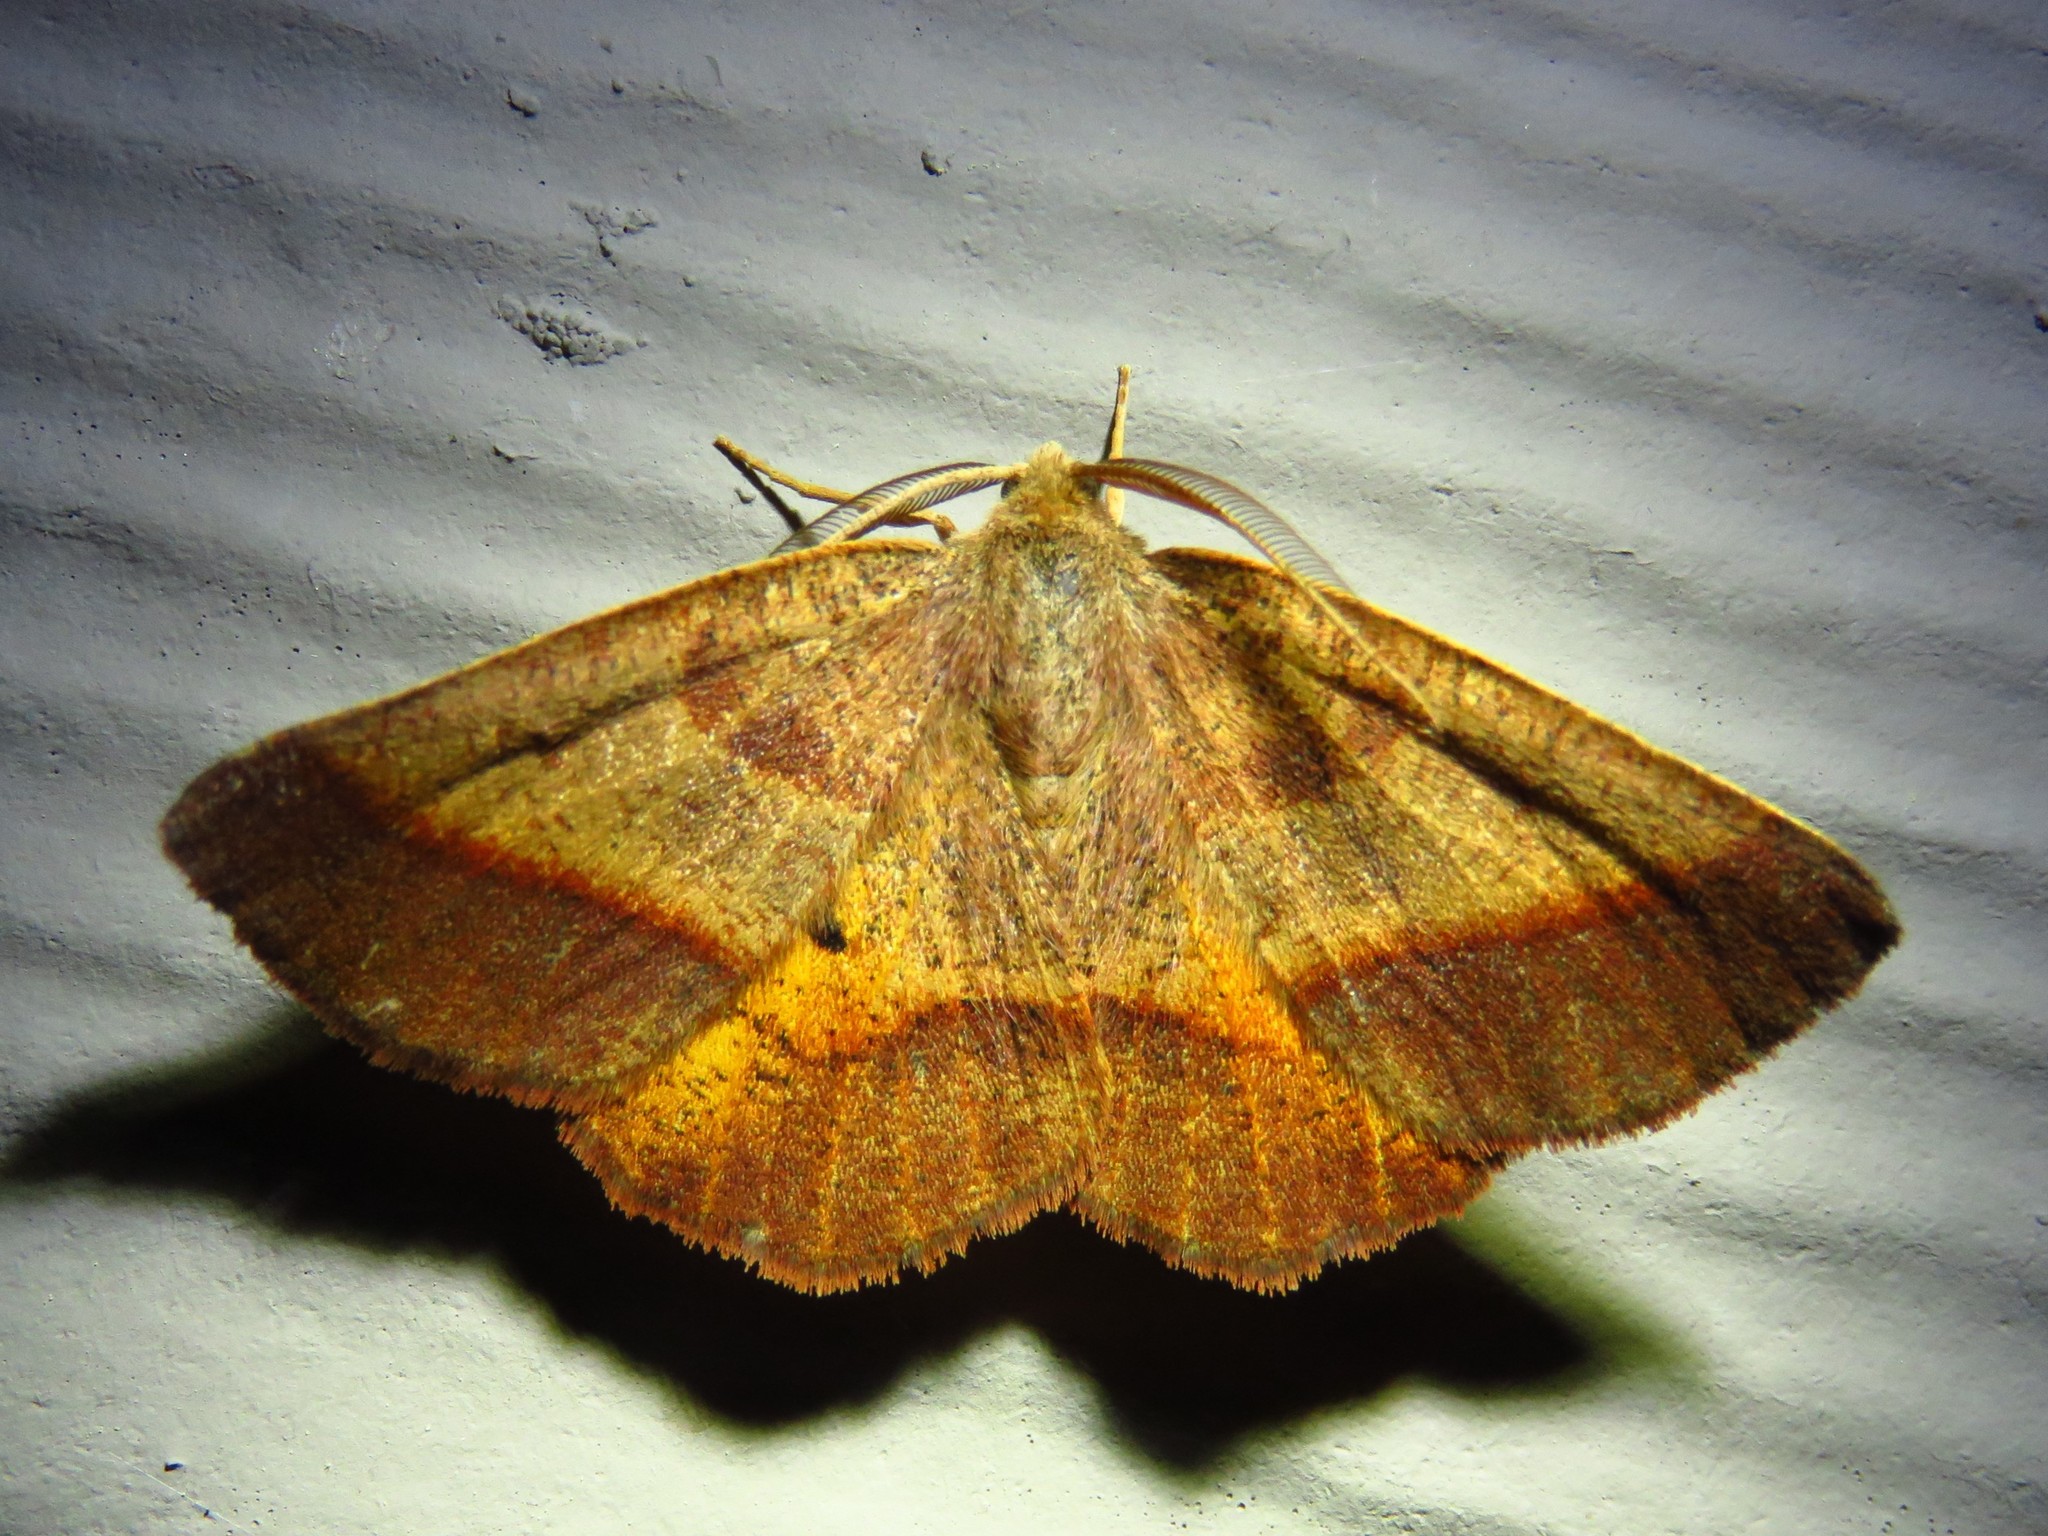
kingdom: Animalia
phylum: Arthropoda
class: Insecta
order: Lepidoptera
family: Geometridae
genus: Metarranthis
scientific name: Metarranthis obfirmaria
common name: Yellow-washed metarranthis
